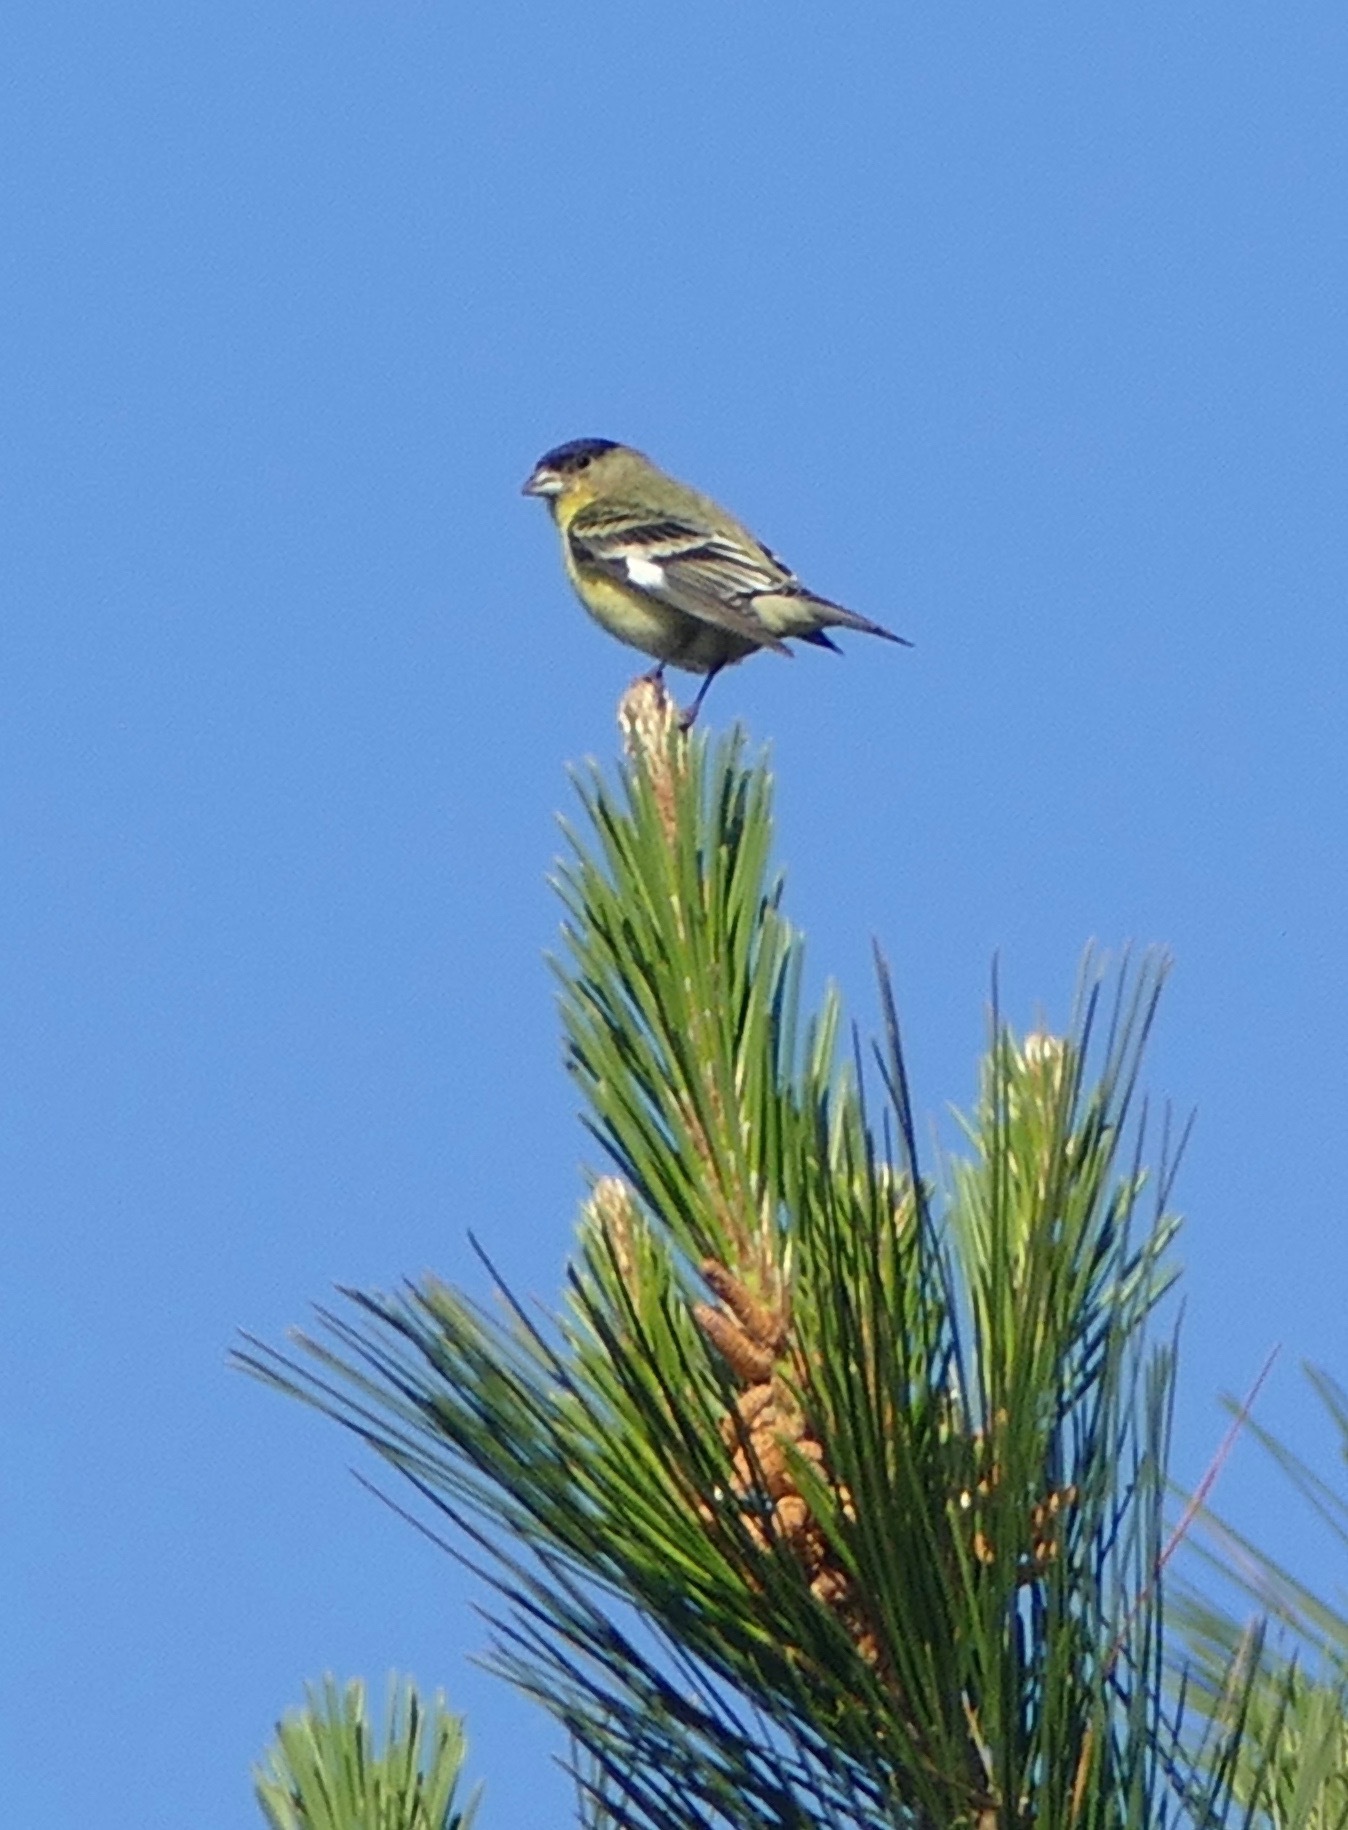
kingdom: Animalia
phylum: Chordata
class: Aves
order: Passeriformes
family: Fringillidae
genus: Spinus
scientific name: Spinus psaltria
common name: Lesser goldfinch
